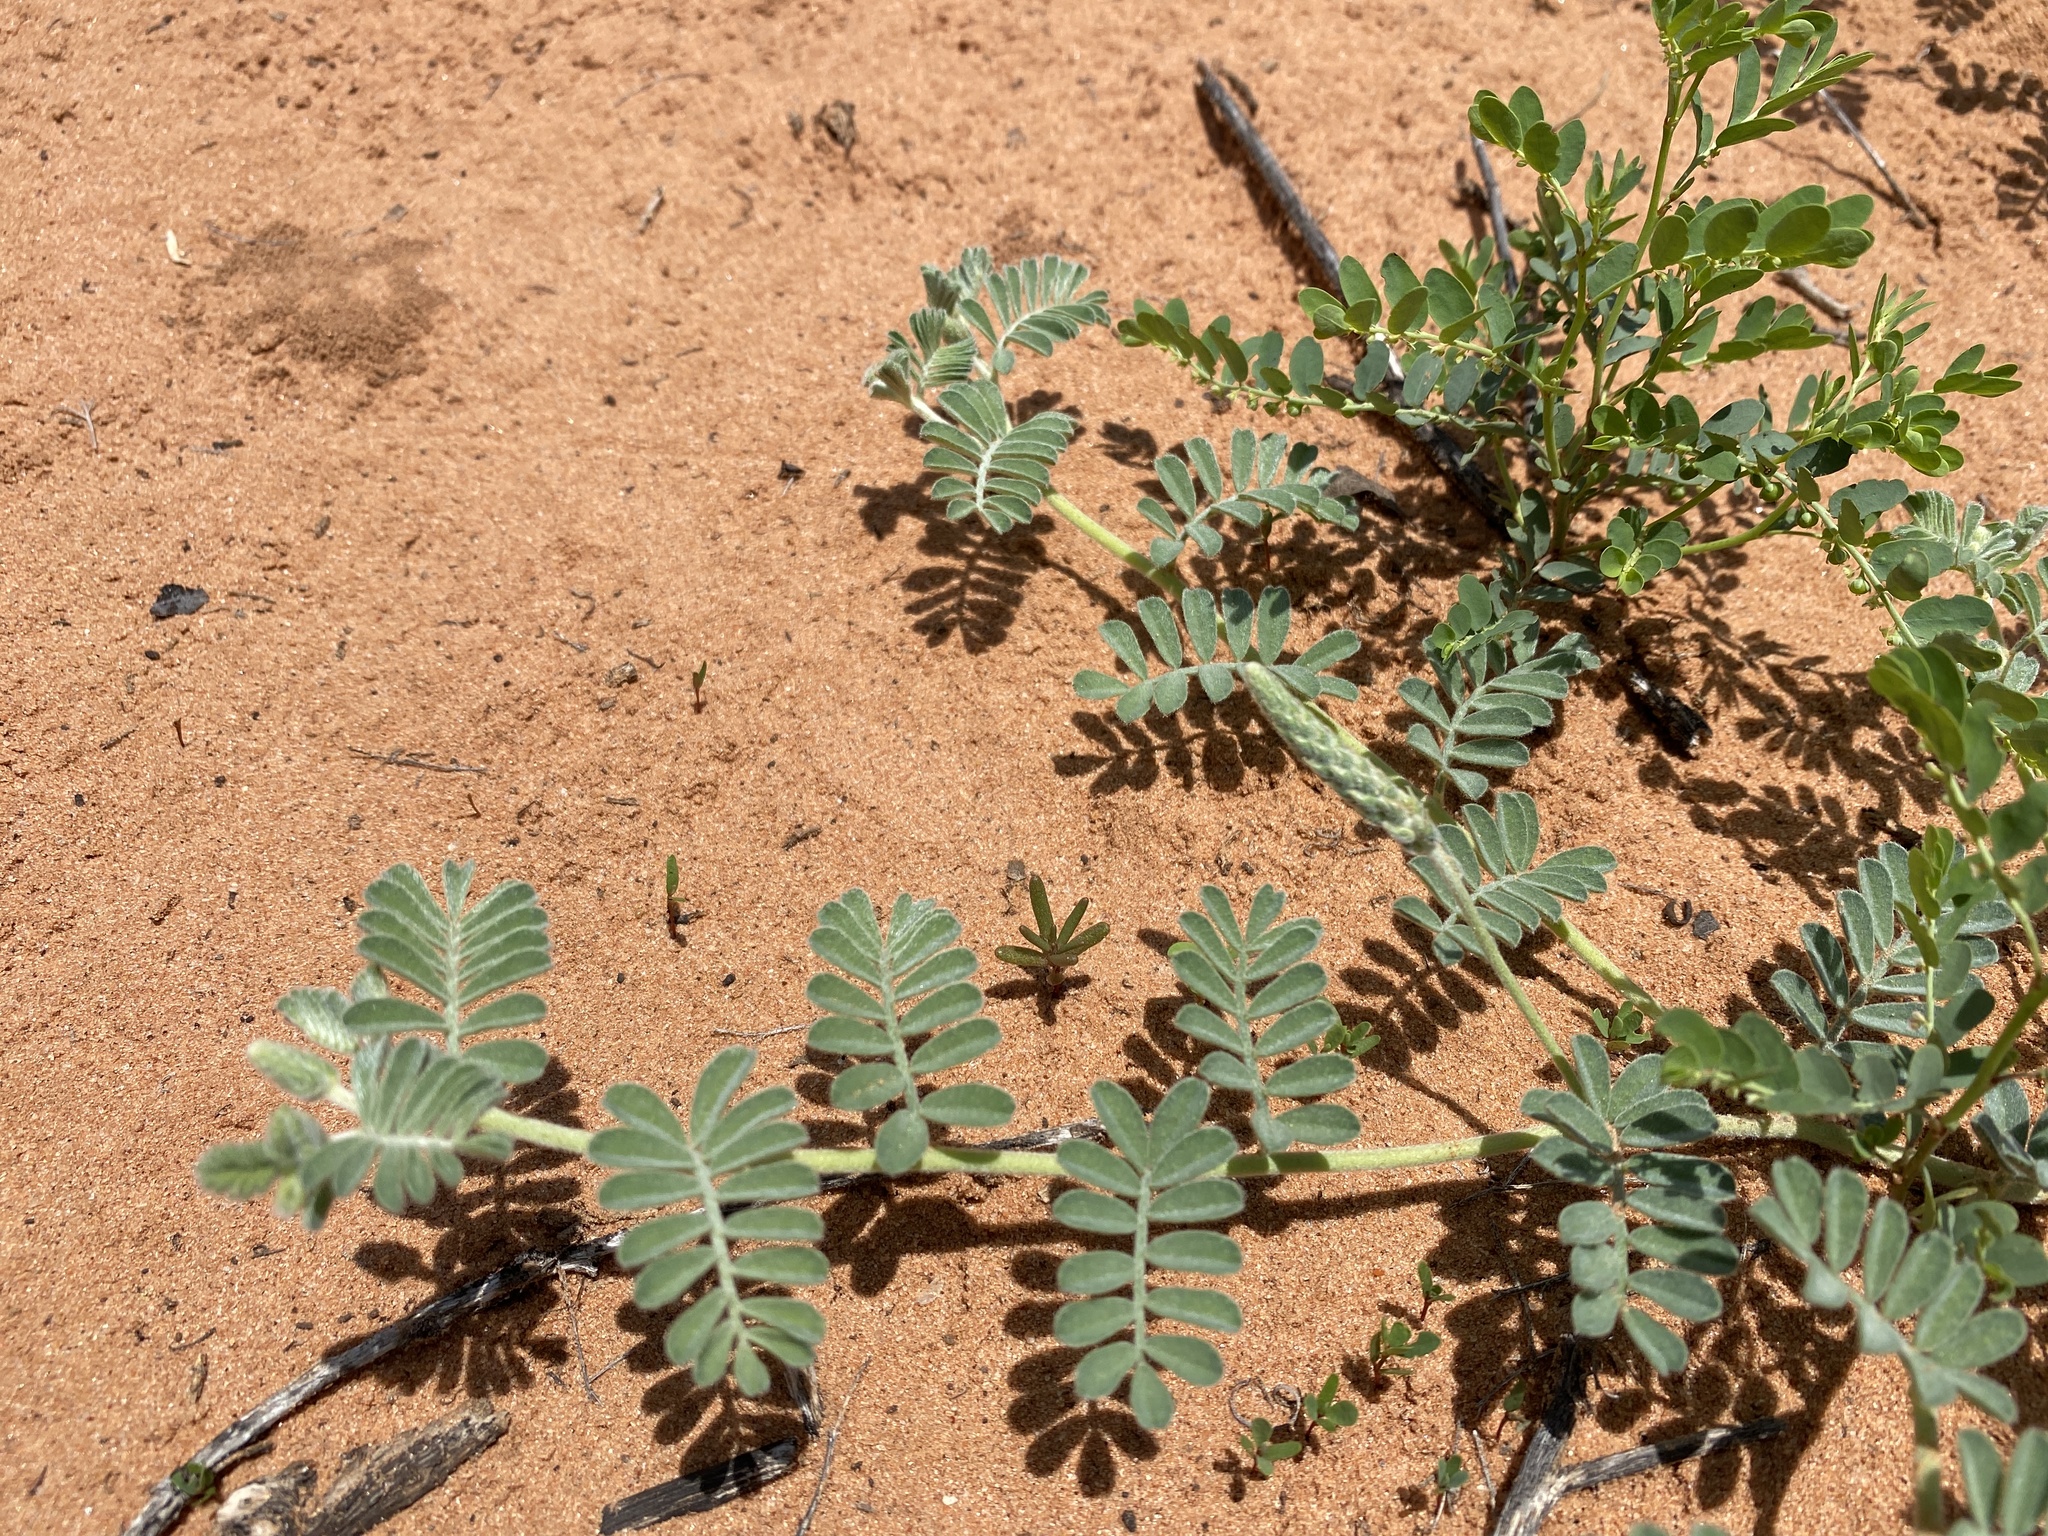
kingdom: Plantae
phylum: Tracheophyta
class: Magnoliopsida
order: Fabales
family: Fabaceae
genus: Dalea
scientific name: Dalea lanata
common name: Woolly dalea
